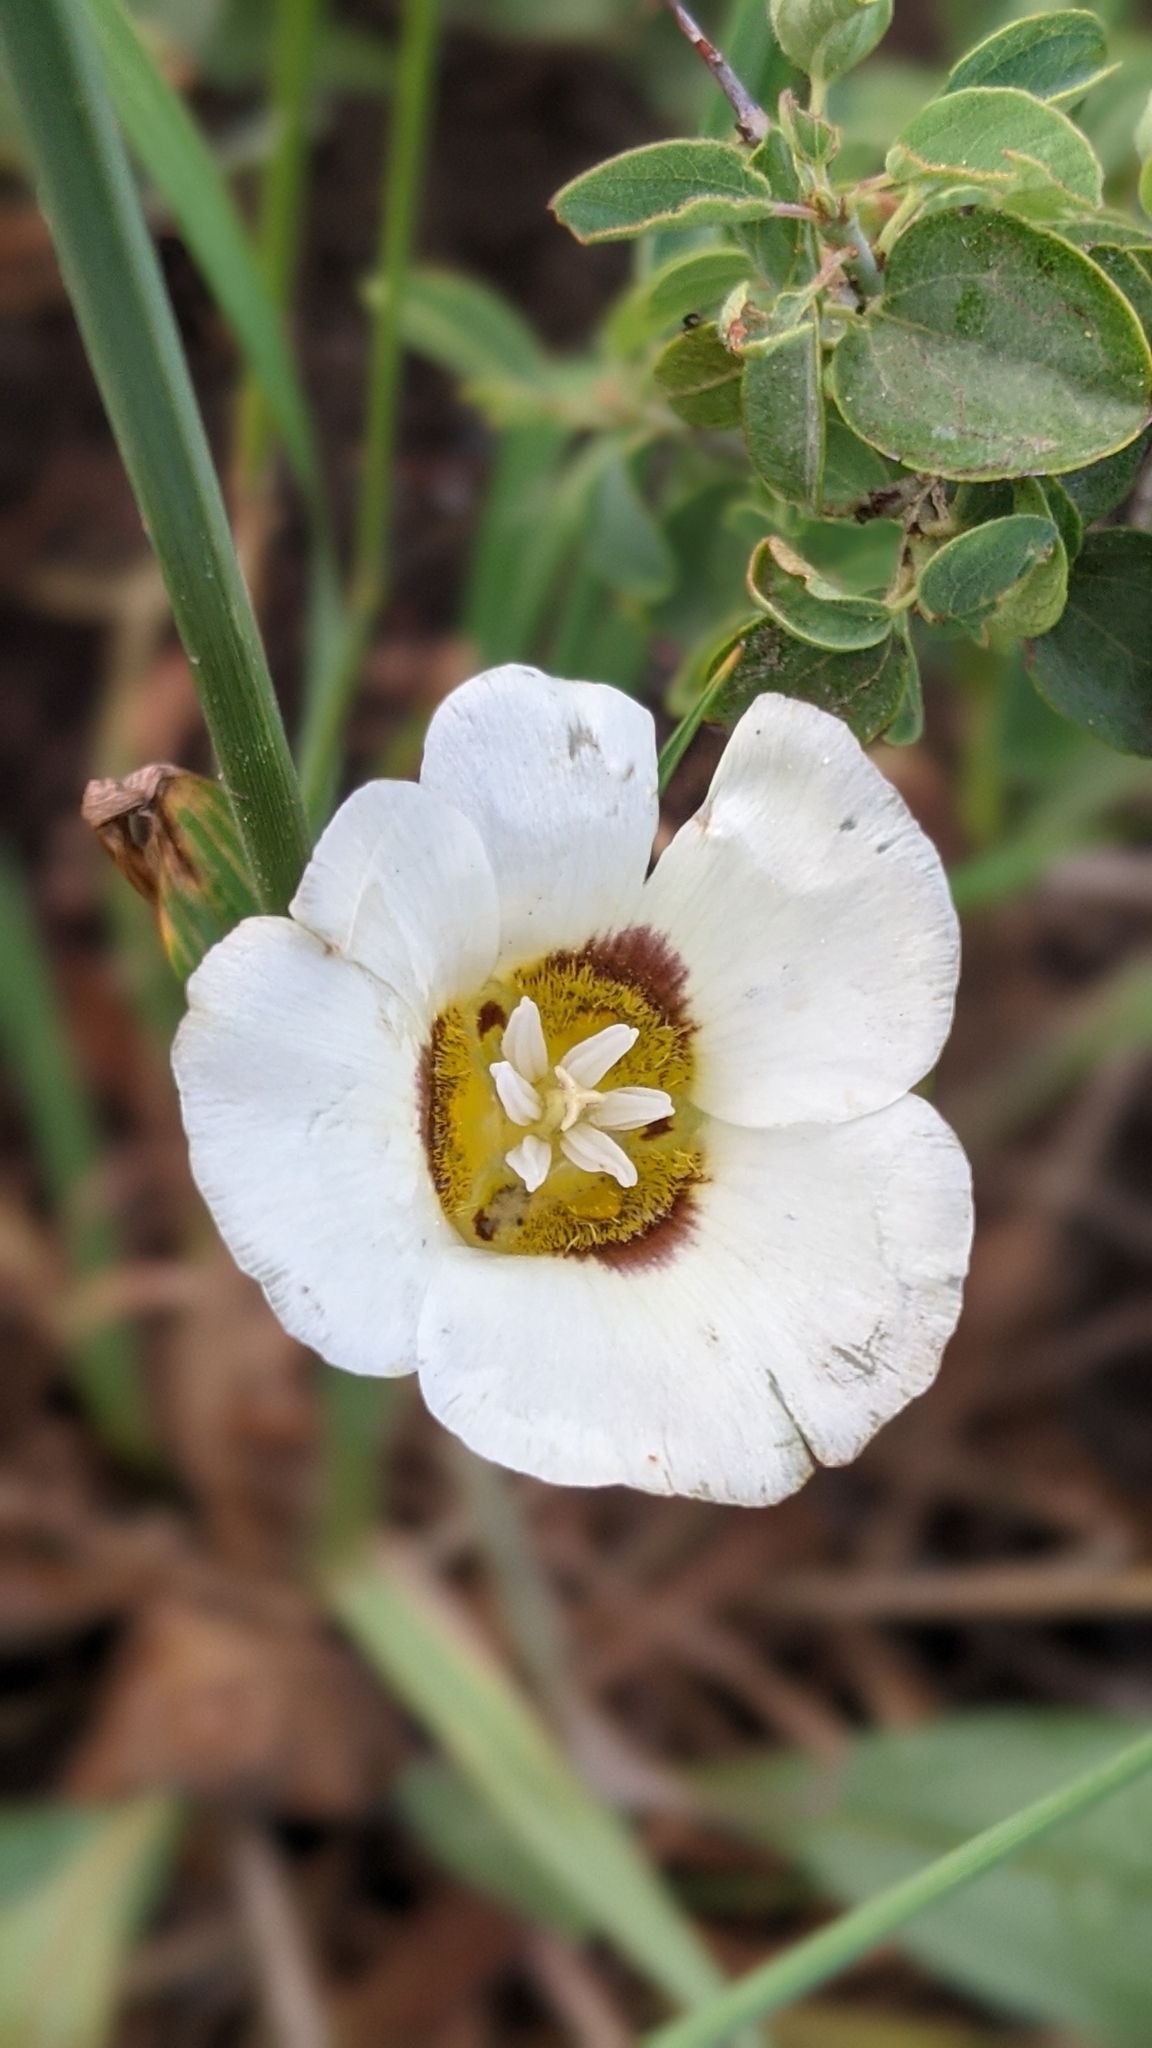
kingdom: Plantae
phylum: Tracheophyta
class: Liliopsida
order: Liliales
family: Liliaceae
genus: Calochortus
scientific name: Calochortus leichtlinii
